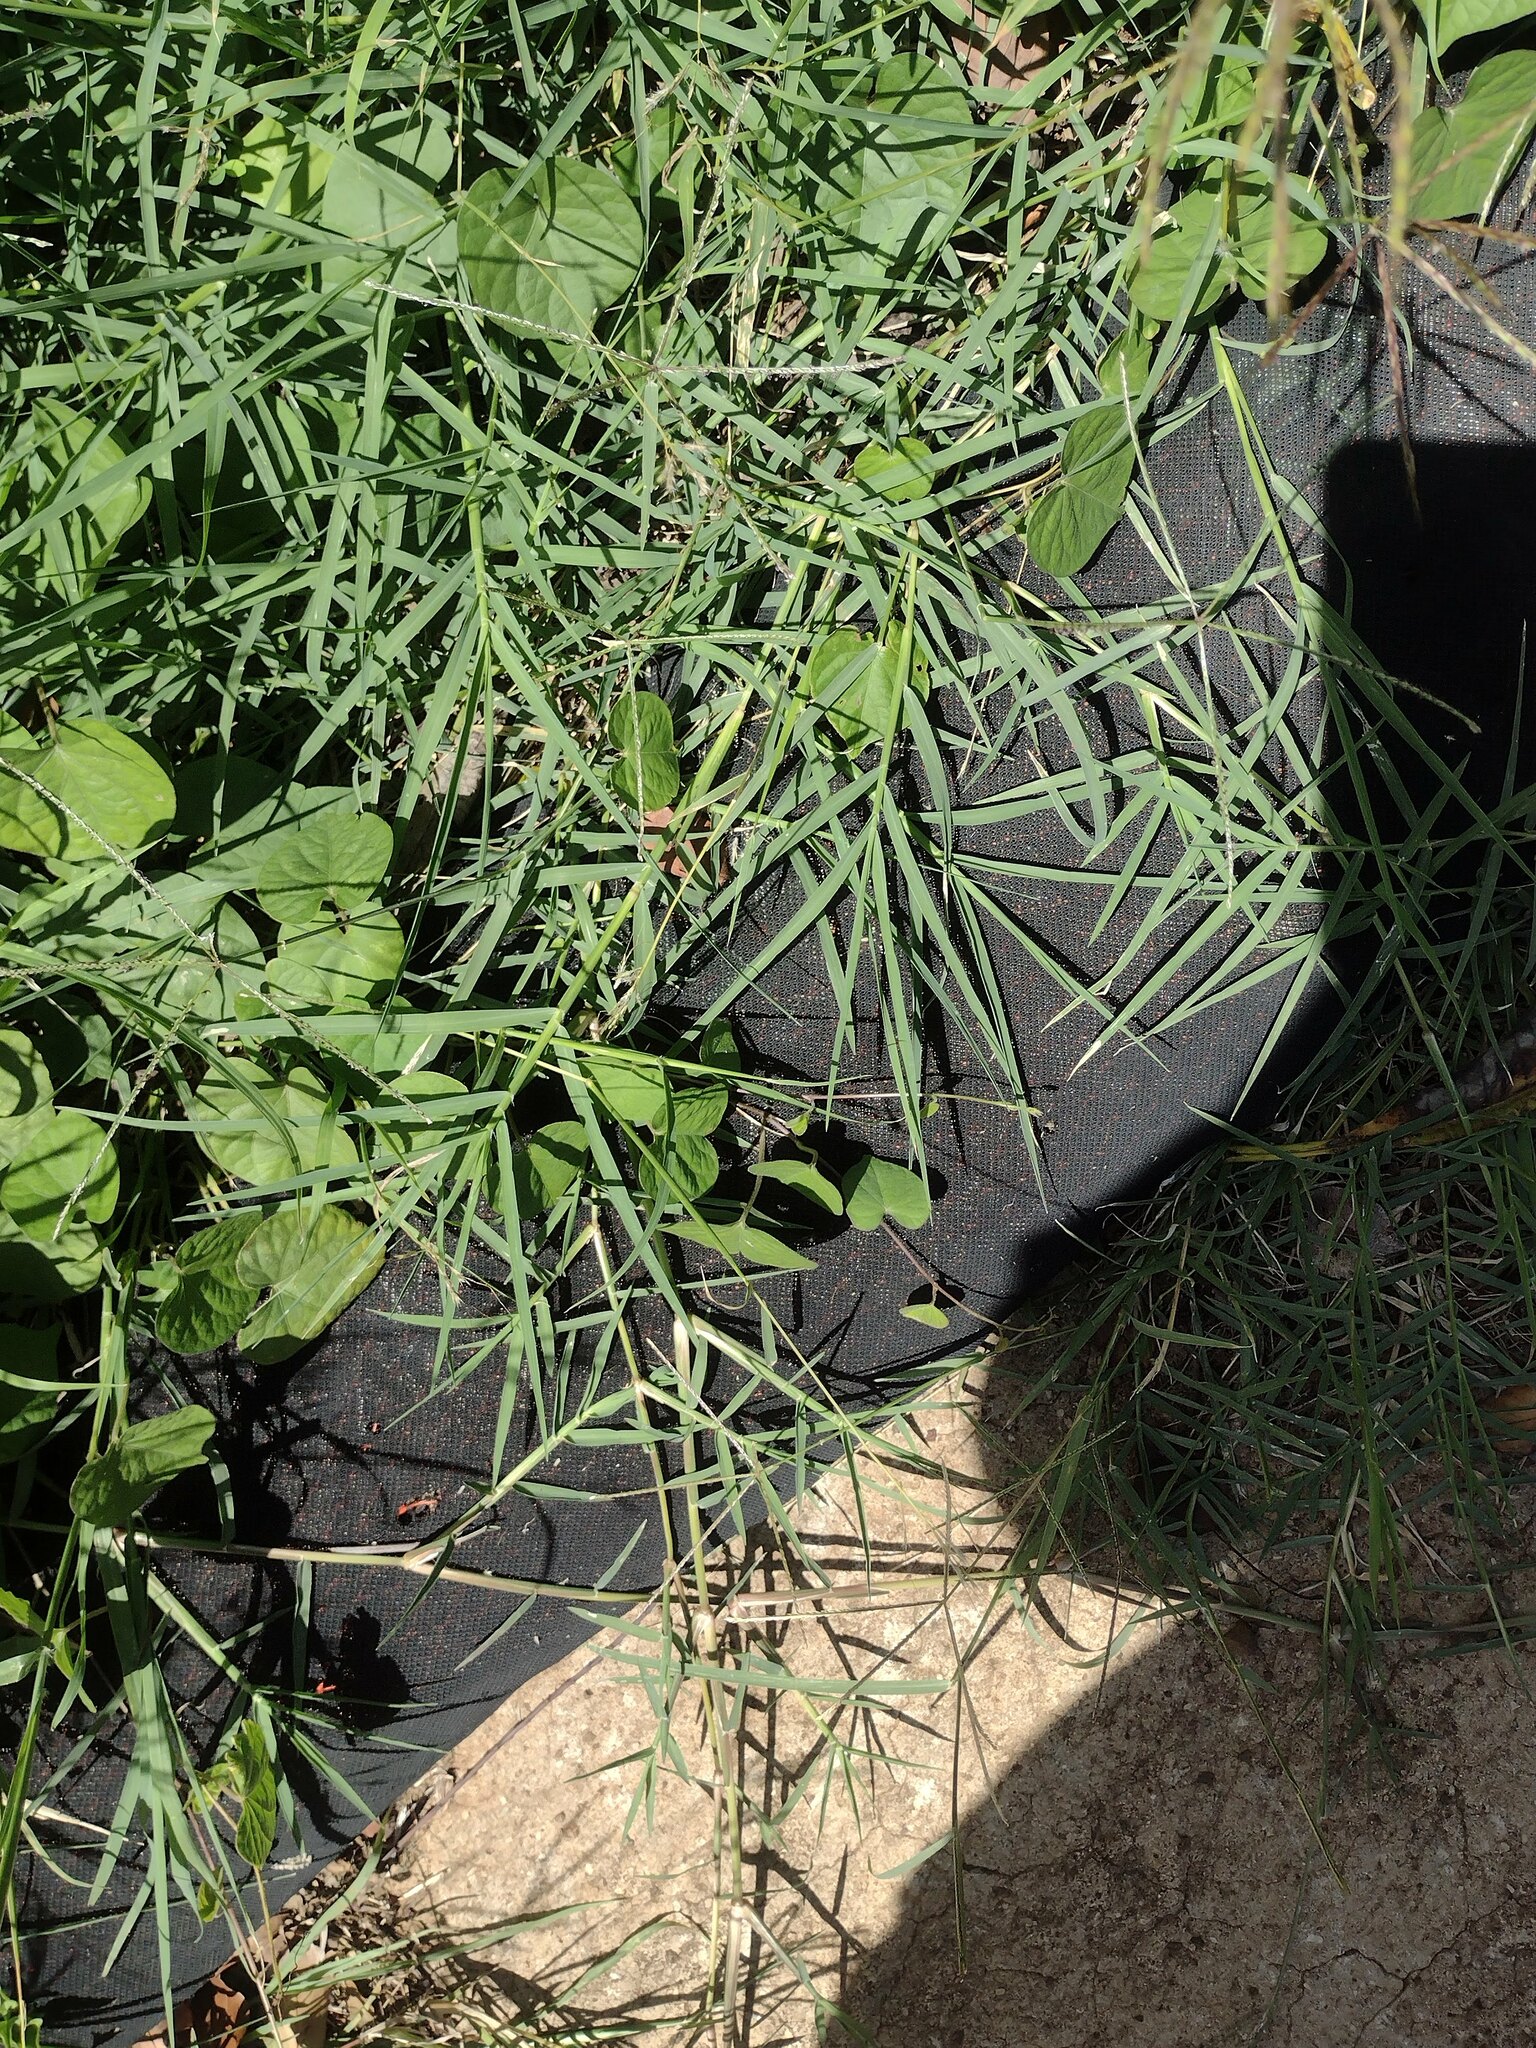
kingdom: Plantae
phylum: Tracheophyta
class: Liliopsida
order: Poales
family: Poaceae
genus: Cynodon
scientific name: Cynodon nlemfuensis
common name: African bermudagrass
